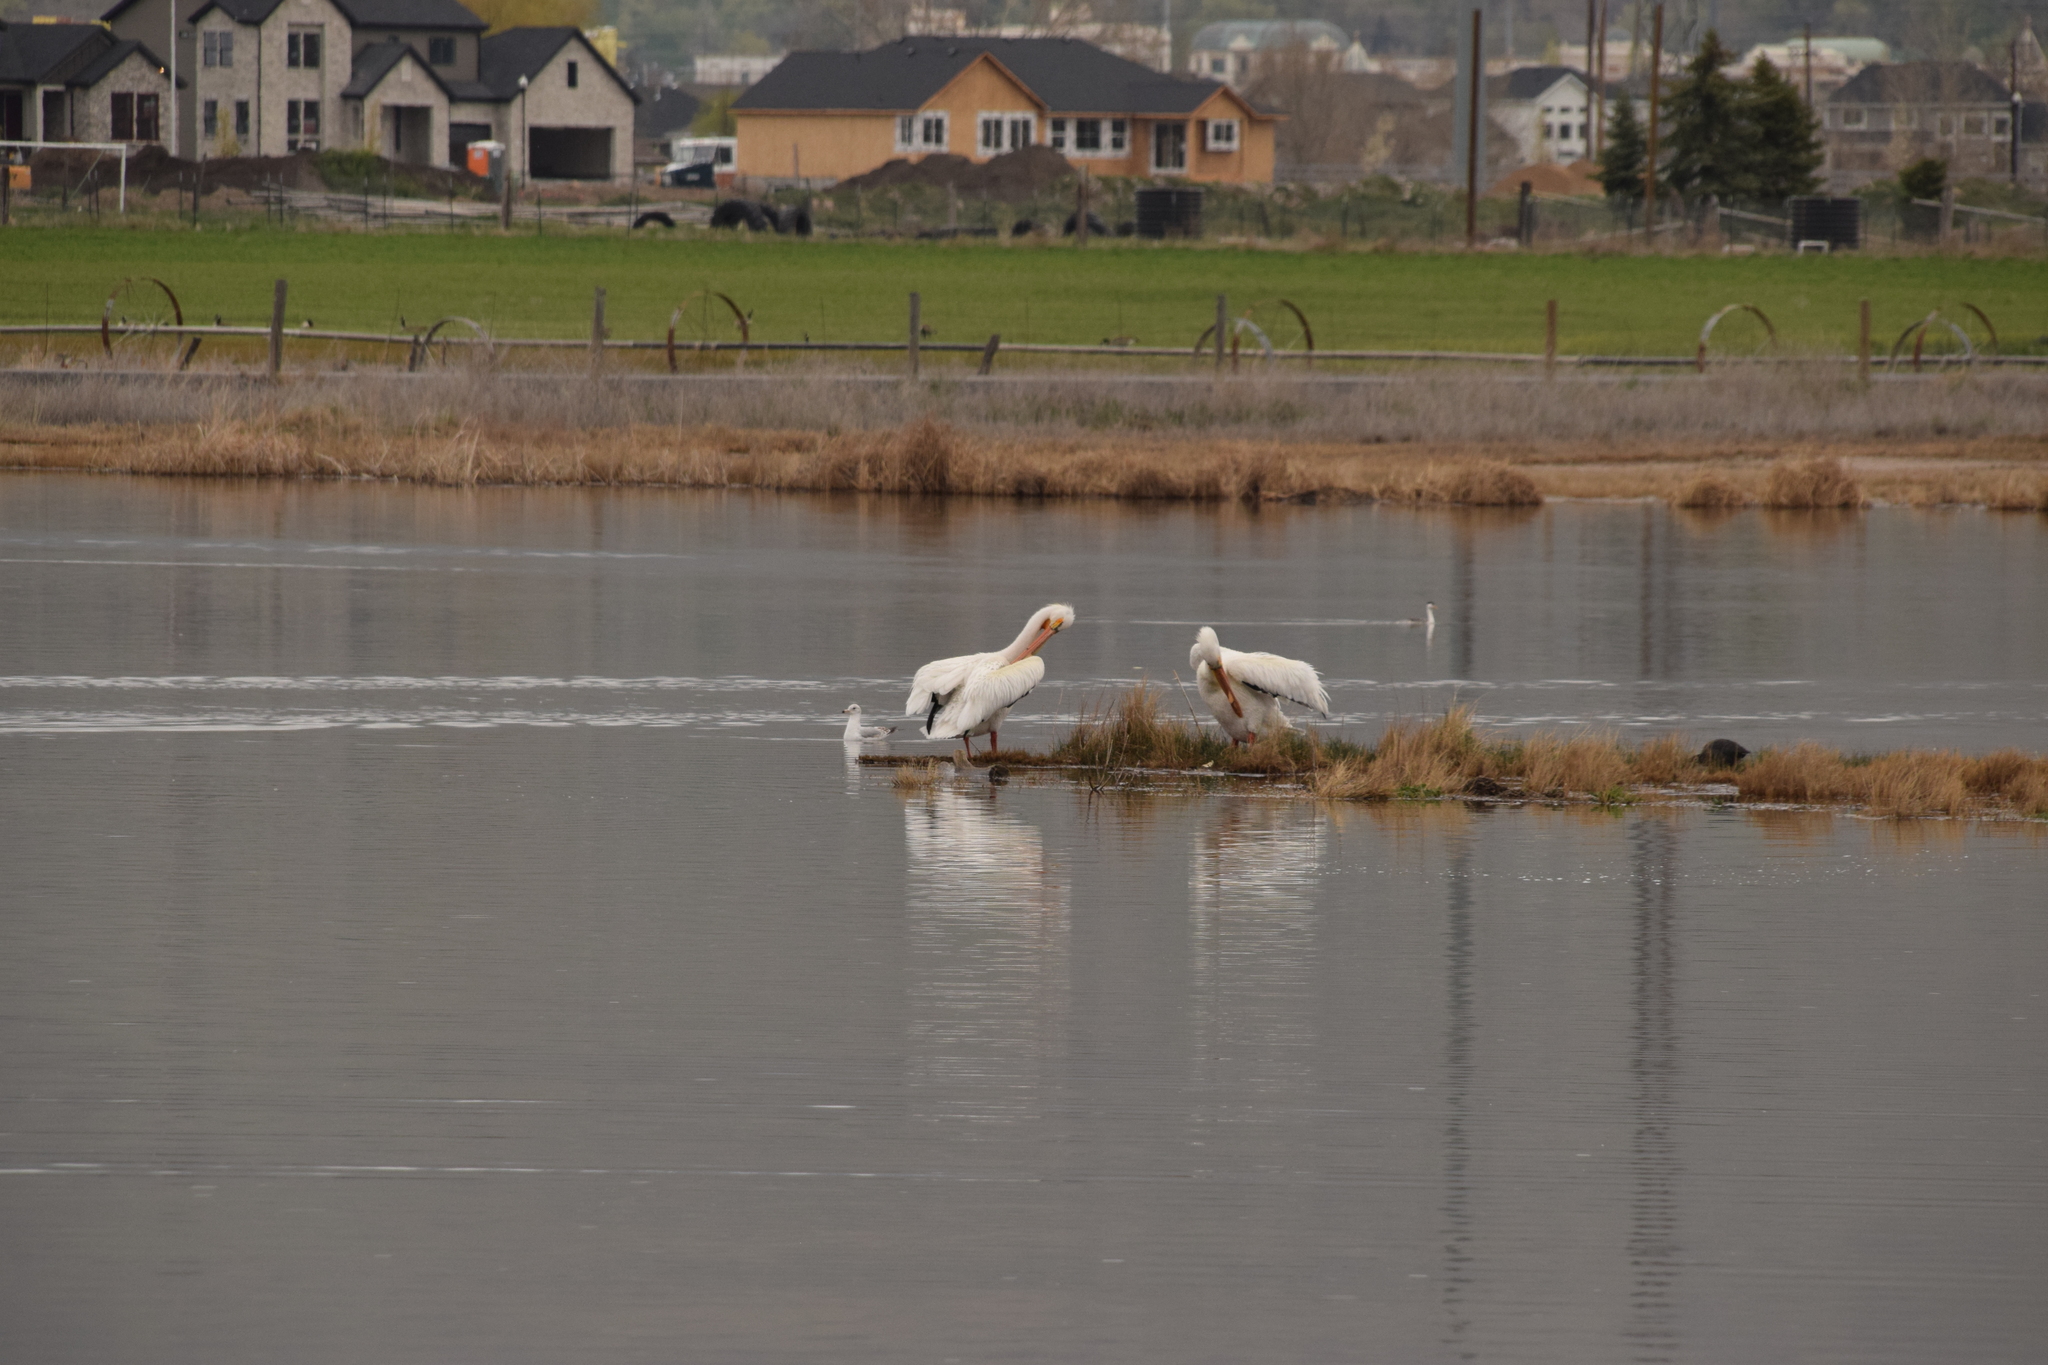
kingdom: Animalia
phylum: Chordata
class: Aves
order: Pelecaniformes
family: Pelecanidae
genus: Pelecanus
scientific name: Pelecanus erythrorhynchos
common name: American white pelican
